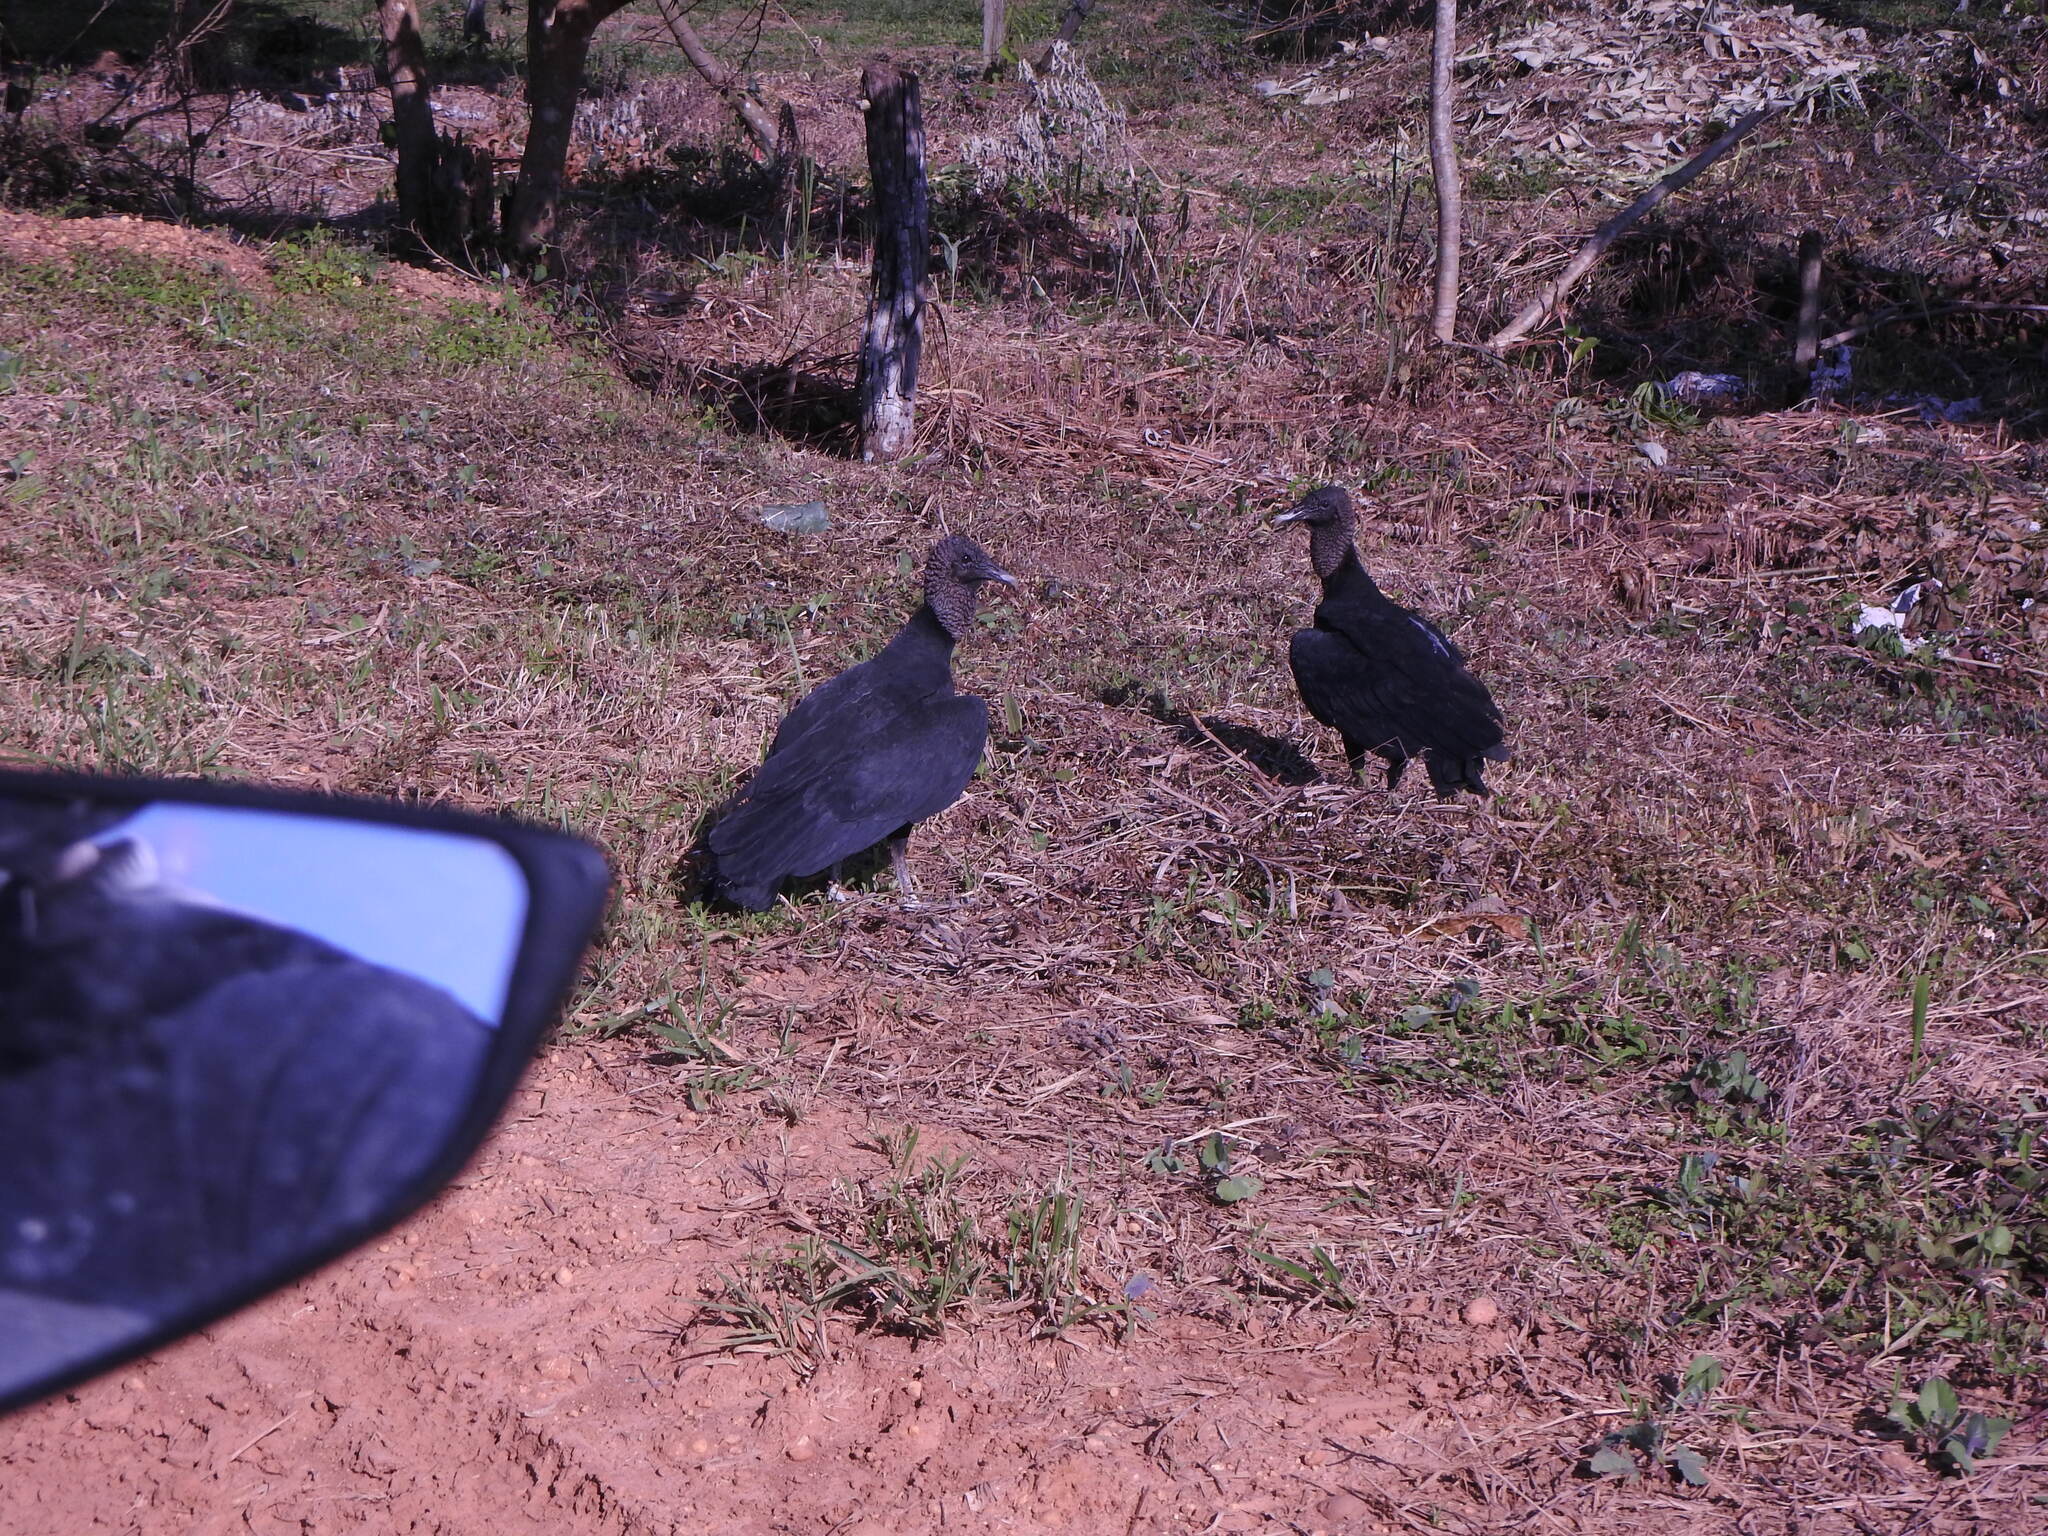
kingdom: Animalia
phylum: Chordata
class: Aves
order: Accipitriformes
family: Cathartidae
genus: Coragyps
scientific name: Coragyps atratus
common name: Black vulture
